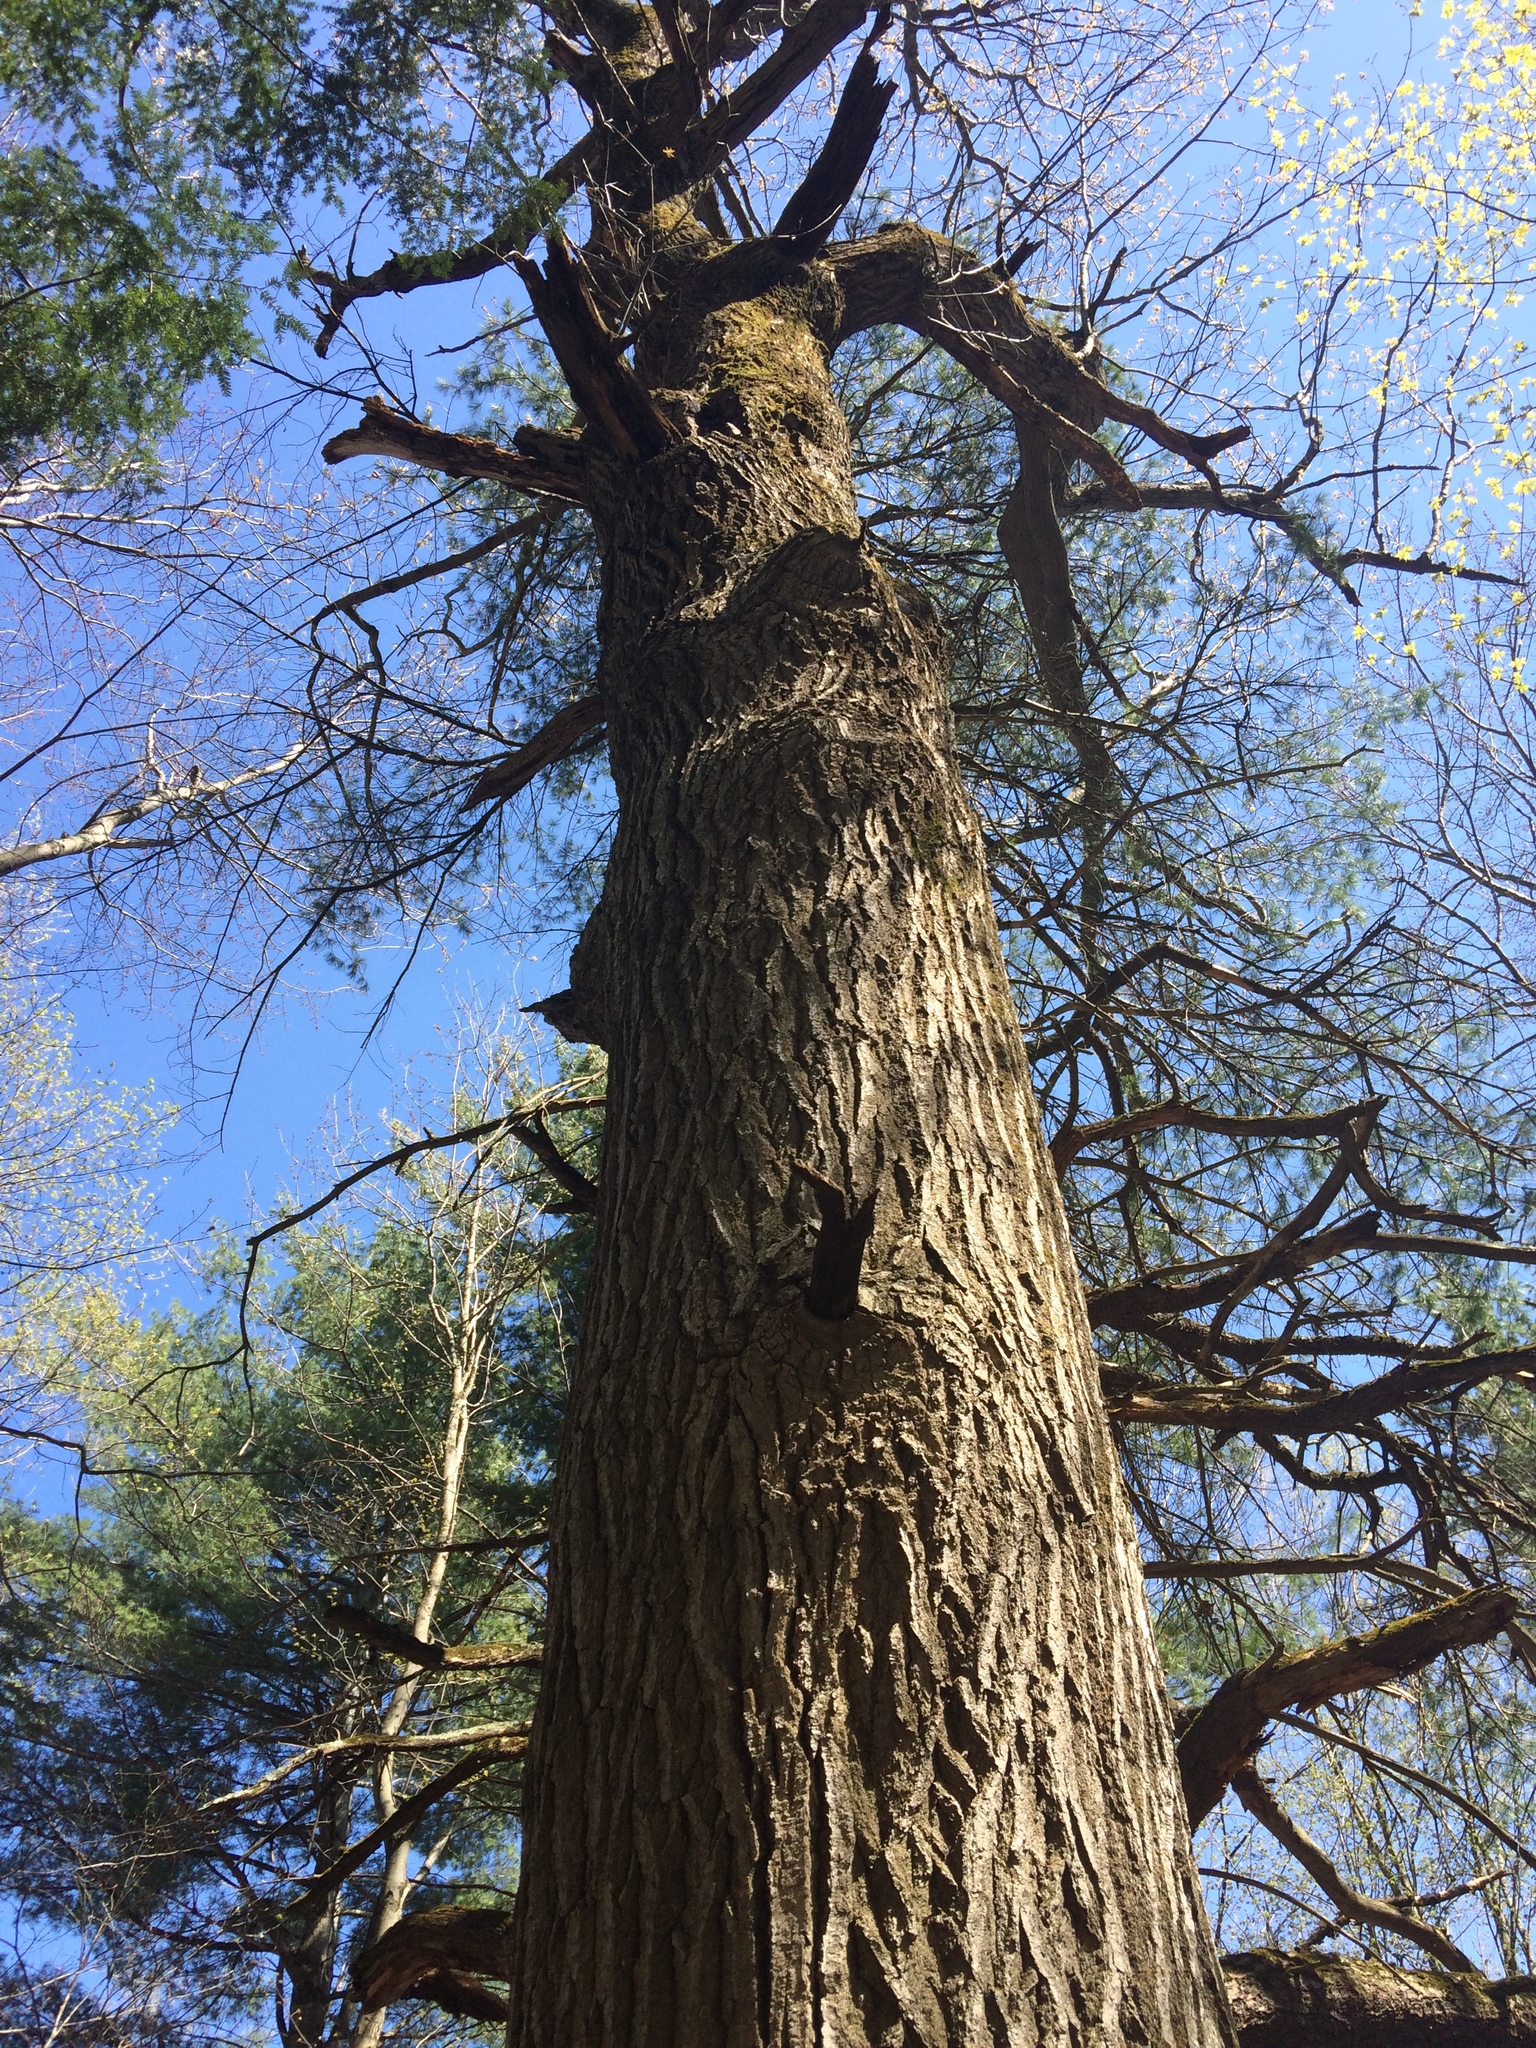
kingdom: Plantae
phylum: Tracheophyta
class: Magnoliopsida
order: Fagales
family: Fagaceae
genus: Quercus
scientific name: Quercus rubra
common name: Red oak
